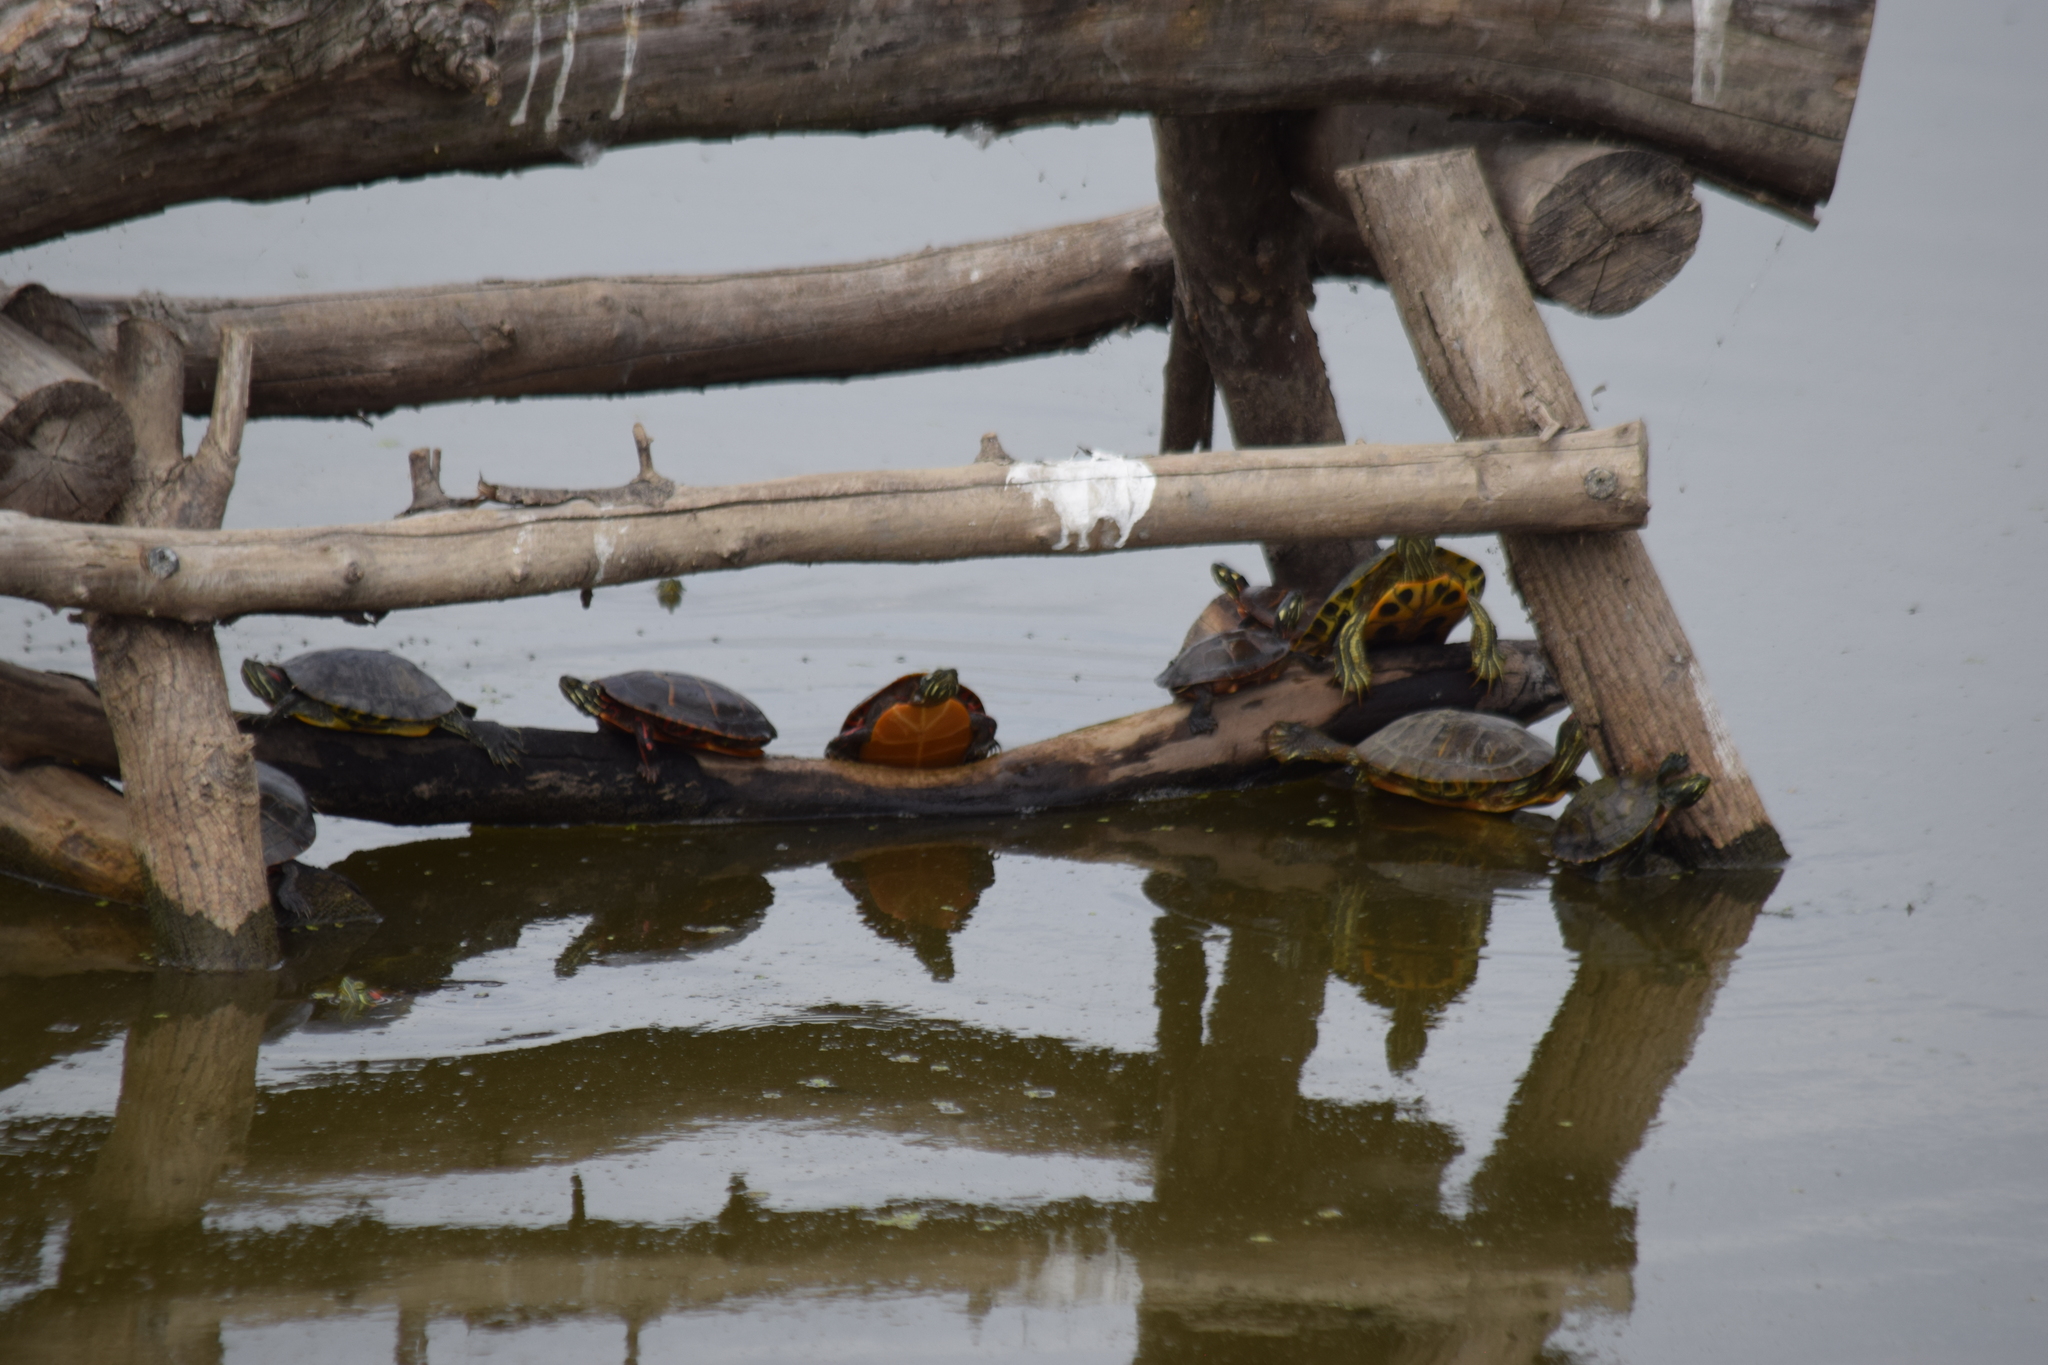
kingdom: Animalia
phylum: Chordata
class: Testudines
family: Emydidae
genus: Trachemys
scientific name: Trachemys scripta
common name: Slider
